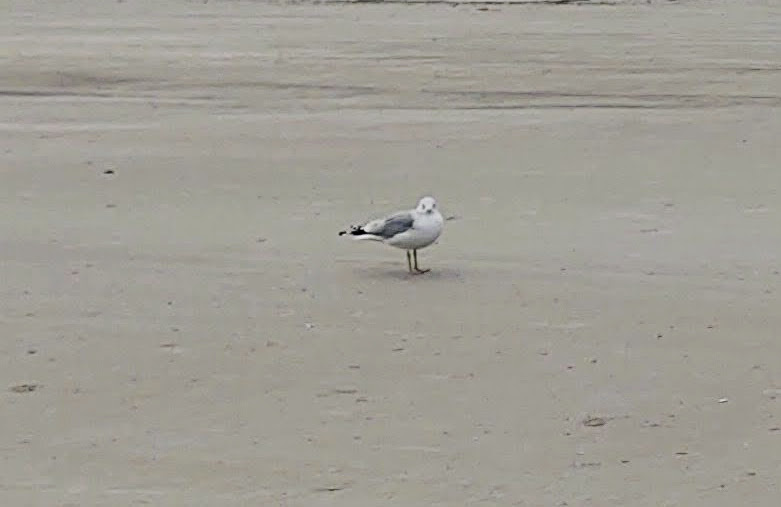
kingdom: Animalia
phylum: Chordata
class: Aves
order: Charadriiformes
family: Laridae
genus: Larus
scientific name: Larus delawarensis
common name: Ring-billed gull
